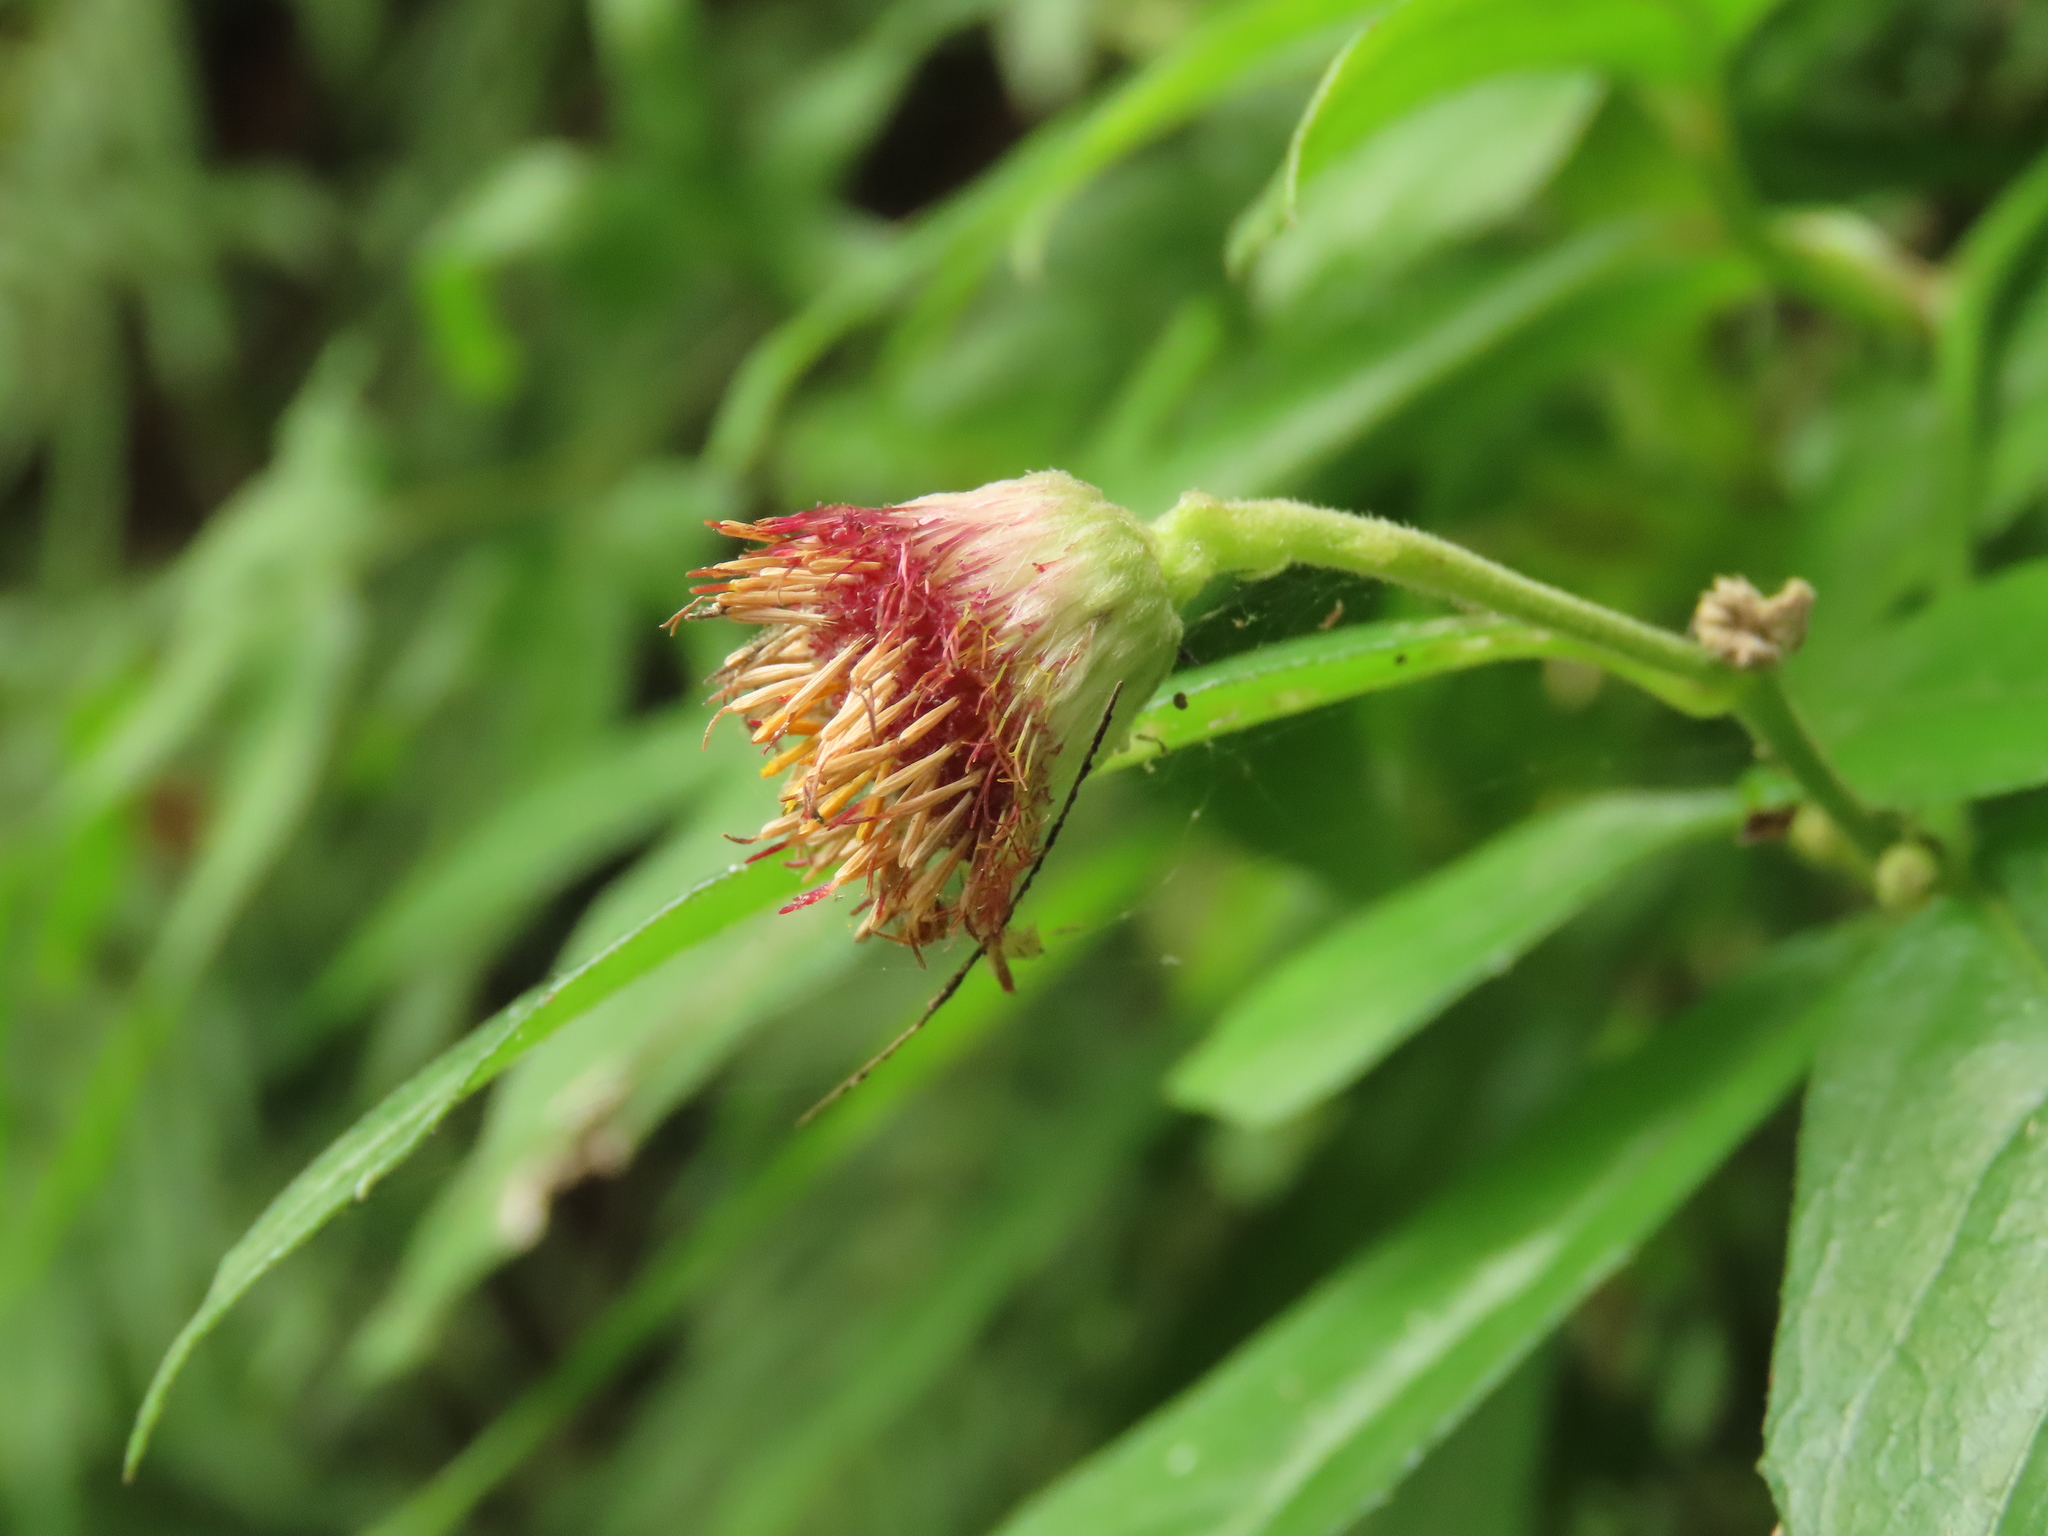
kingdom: Plantae
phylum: Tracheophyta
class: Magnoliopsida
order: Asterales
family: Asteraceae
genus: Blumea
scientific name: Blumea megacephala
